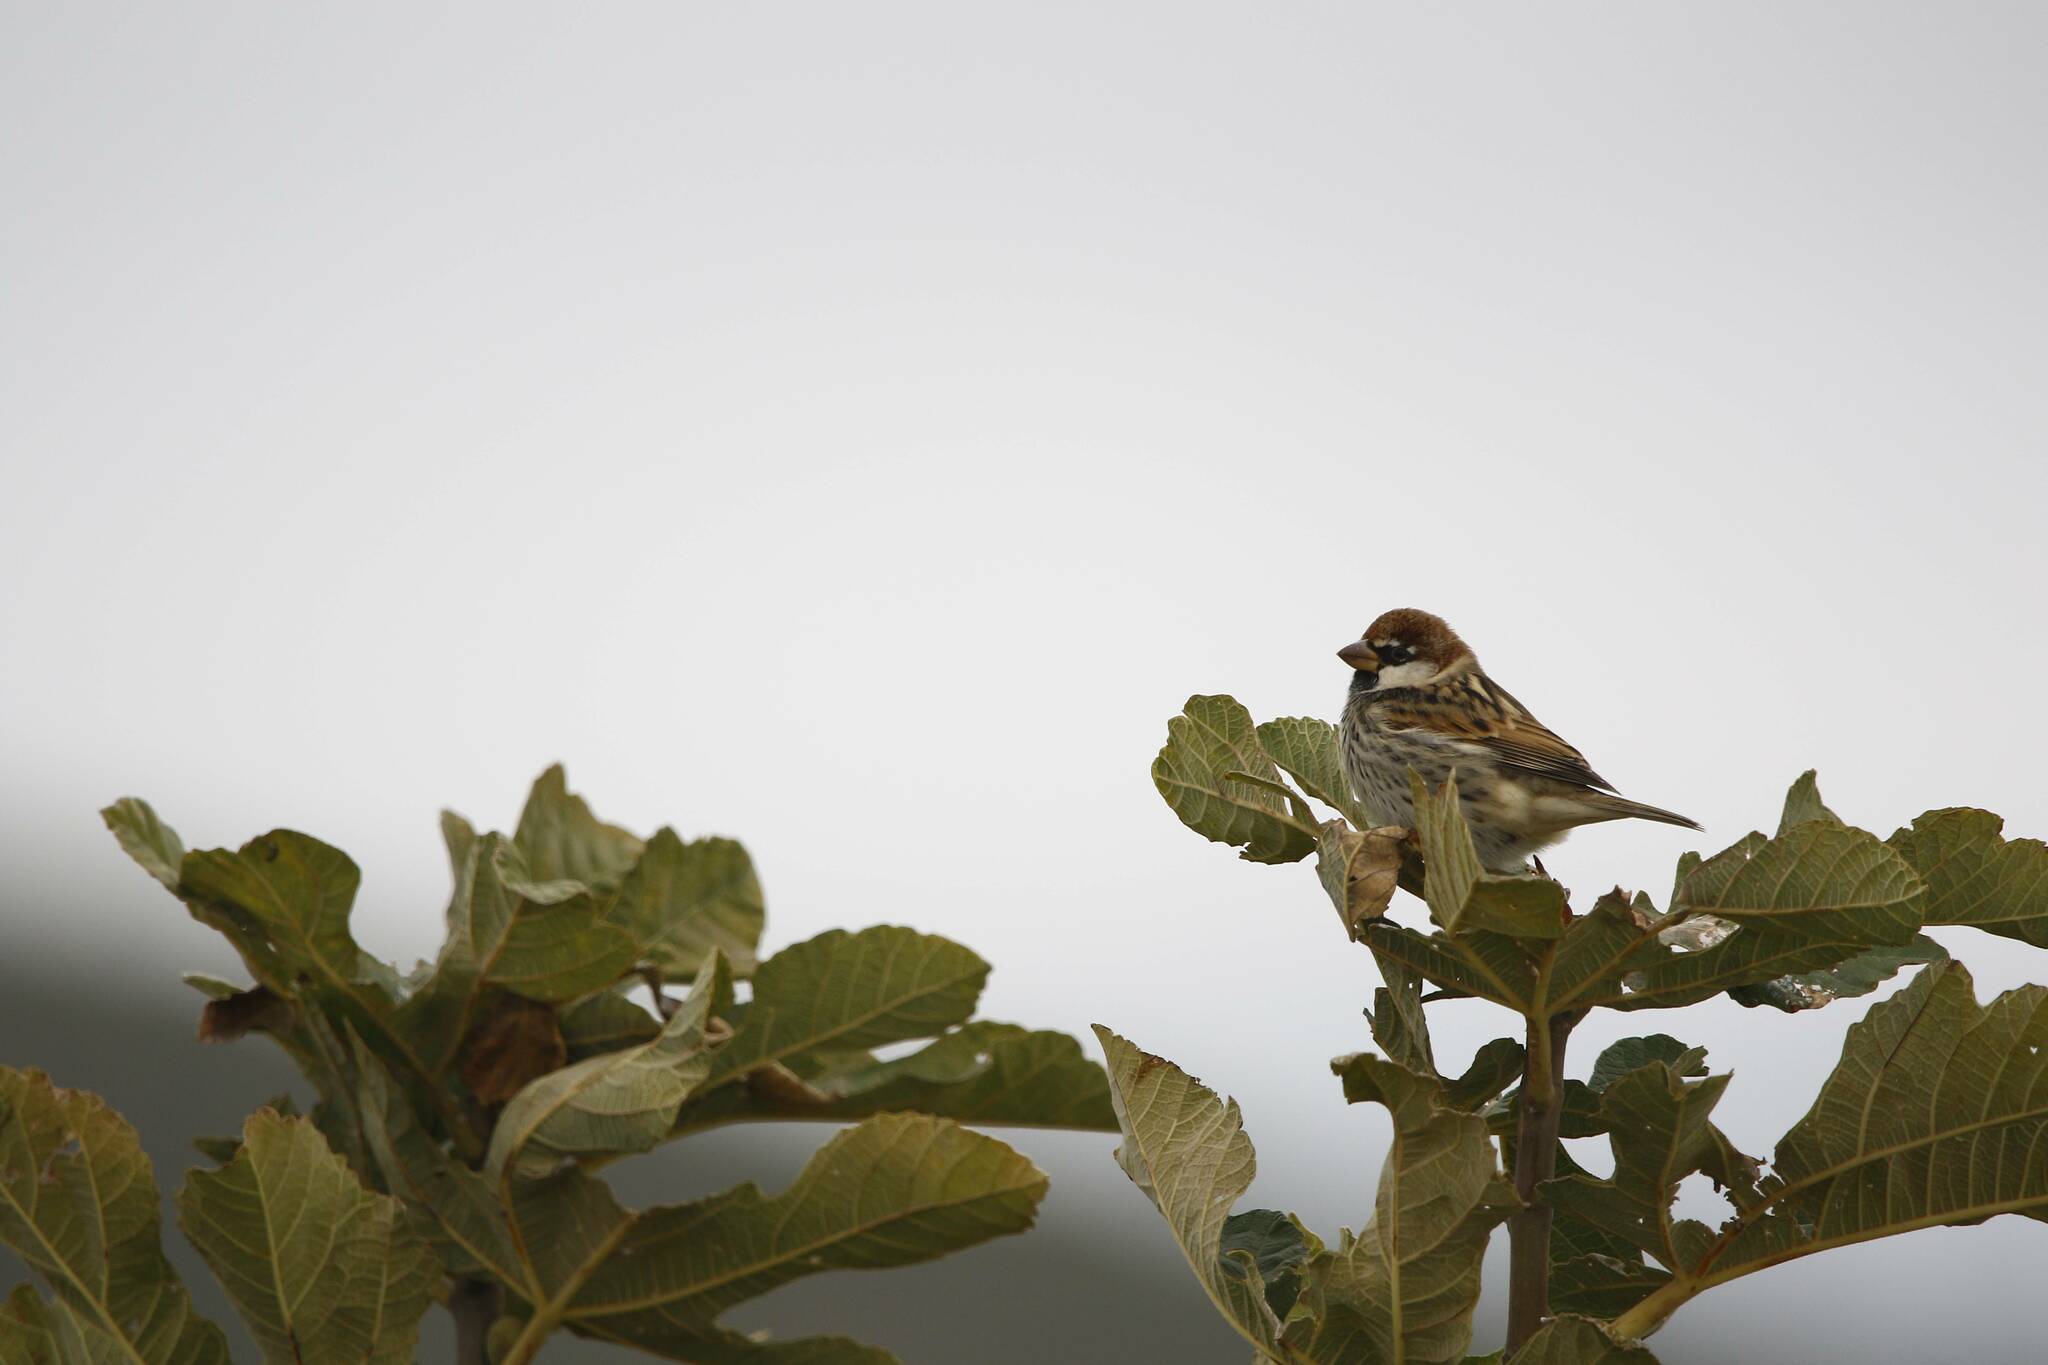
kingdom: Animalia
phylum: Chordata
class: Aves
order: Passeriformes
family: Passeridae
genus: Passer
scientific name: Passer hispaniolensis
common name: Spanish sparrow
